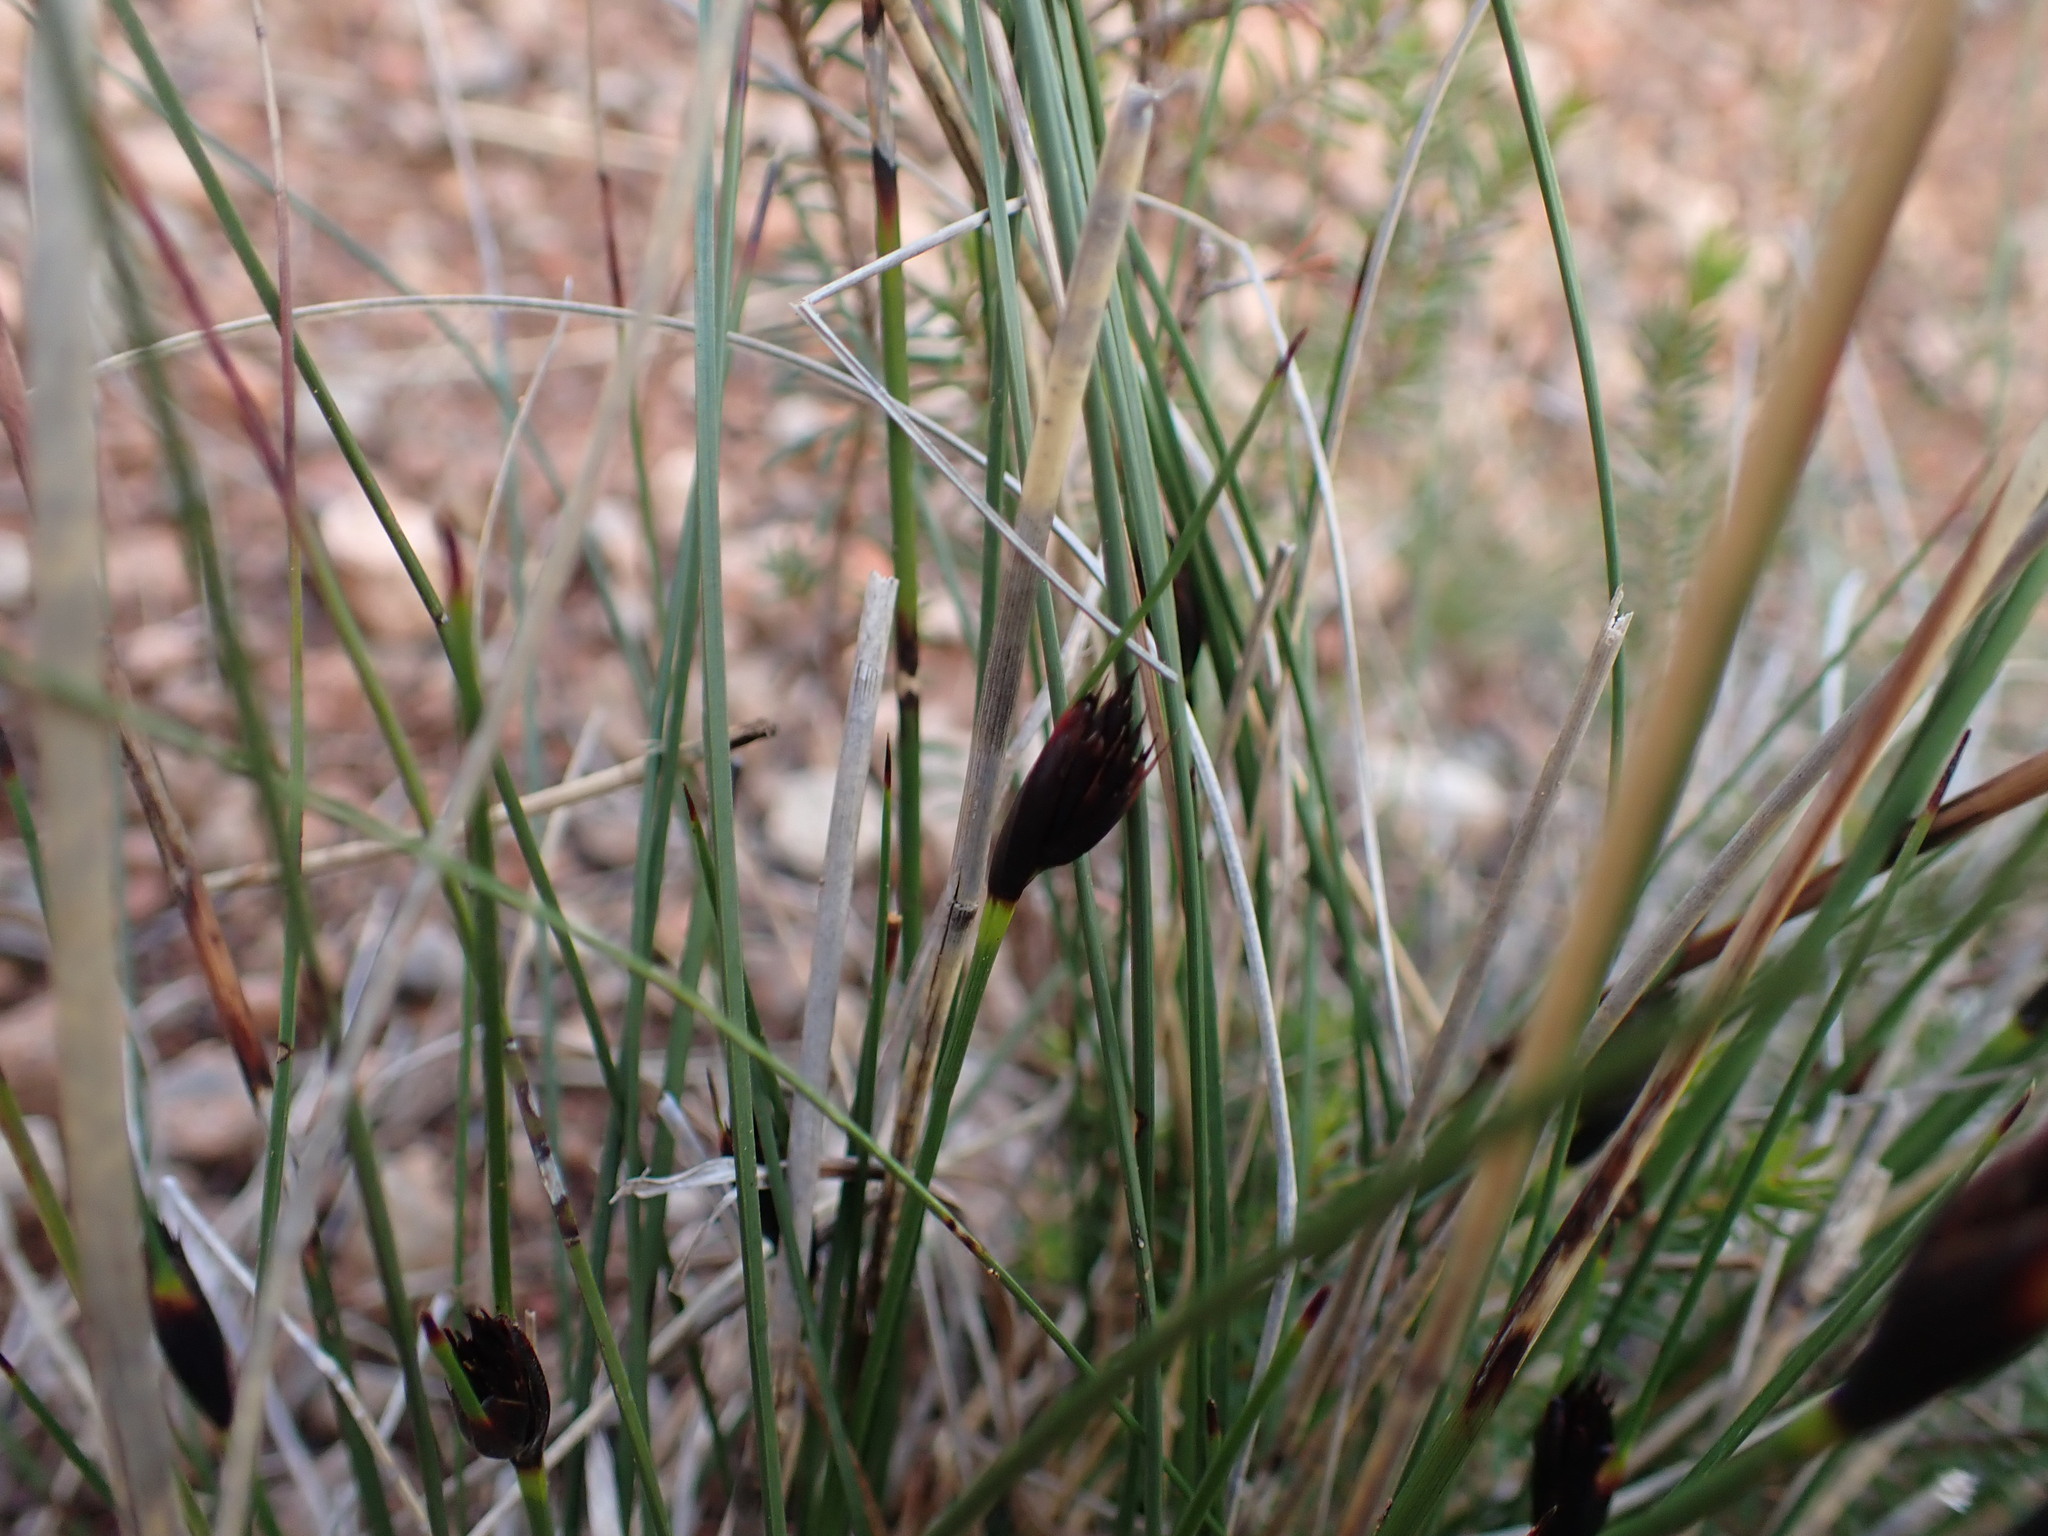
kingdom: Plantae
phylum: Tracheophyta
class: Liliopsida
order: Poales
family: Cyperaceae
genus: Schoenus
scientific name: Schoenus nigricans
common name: Black bog-rush
